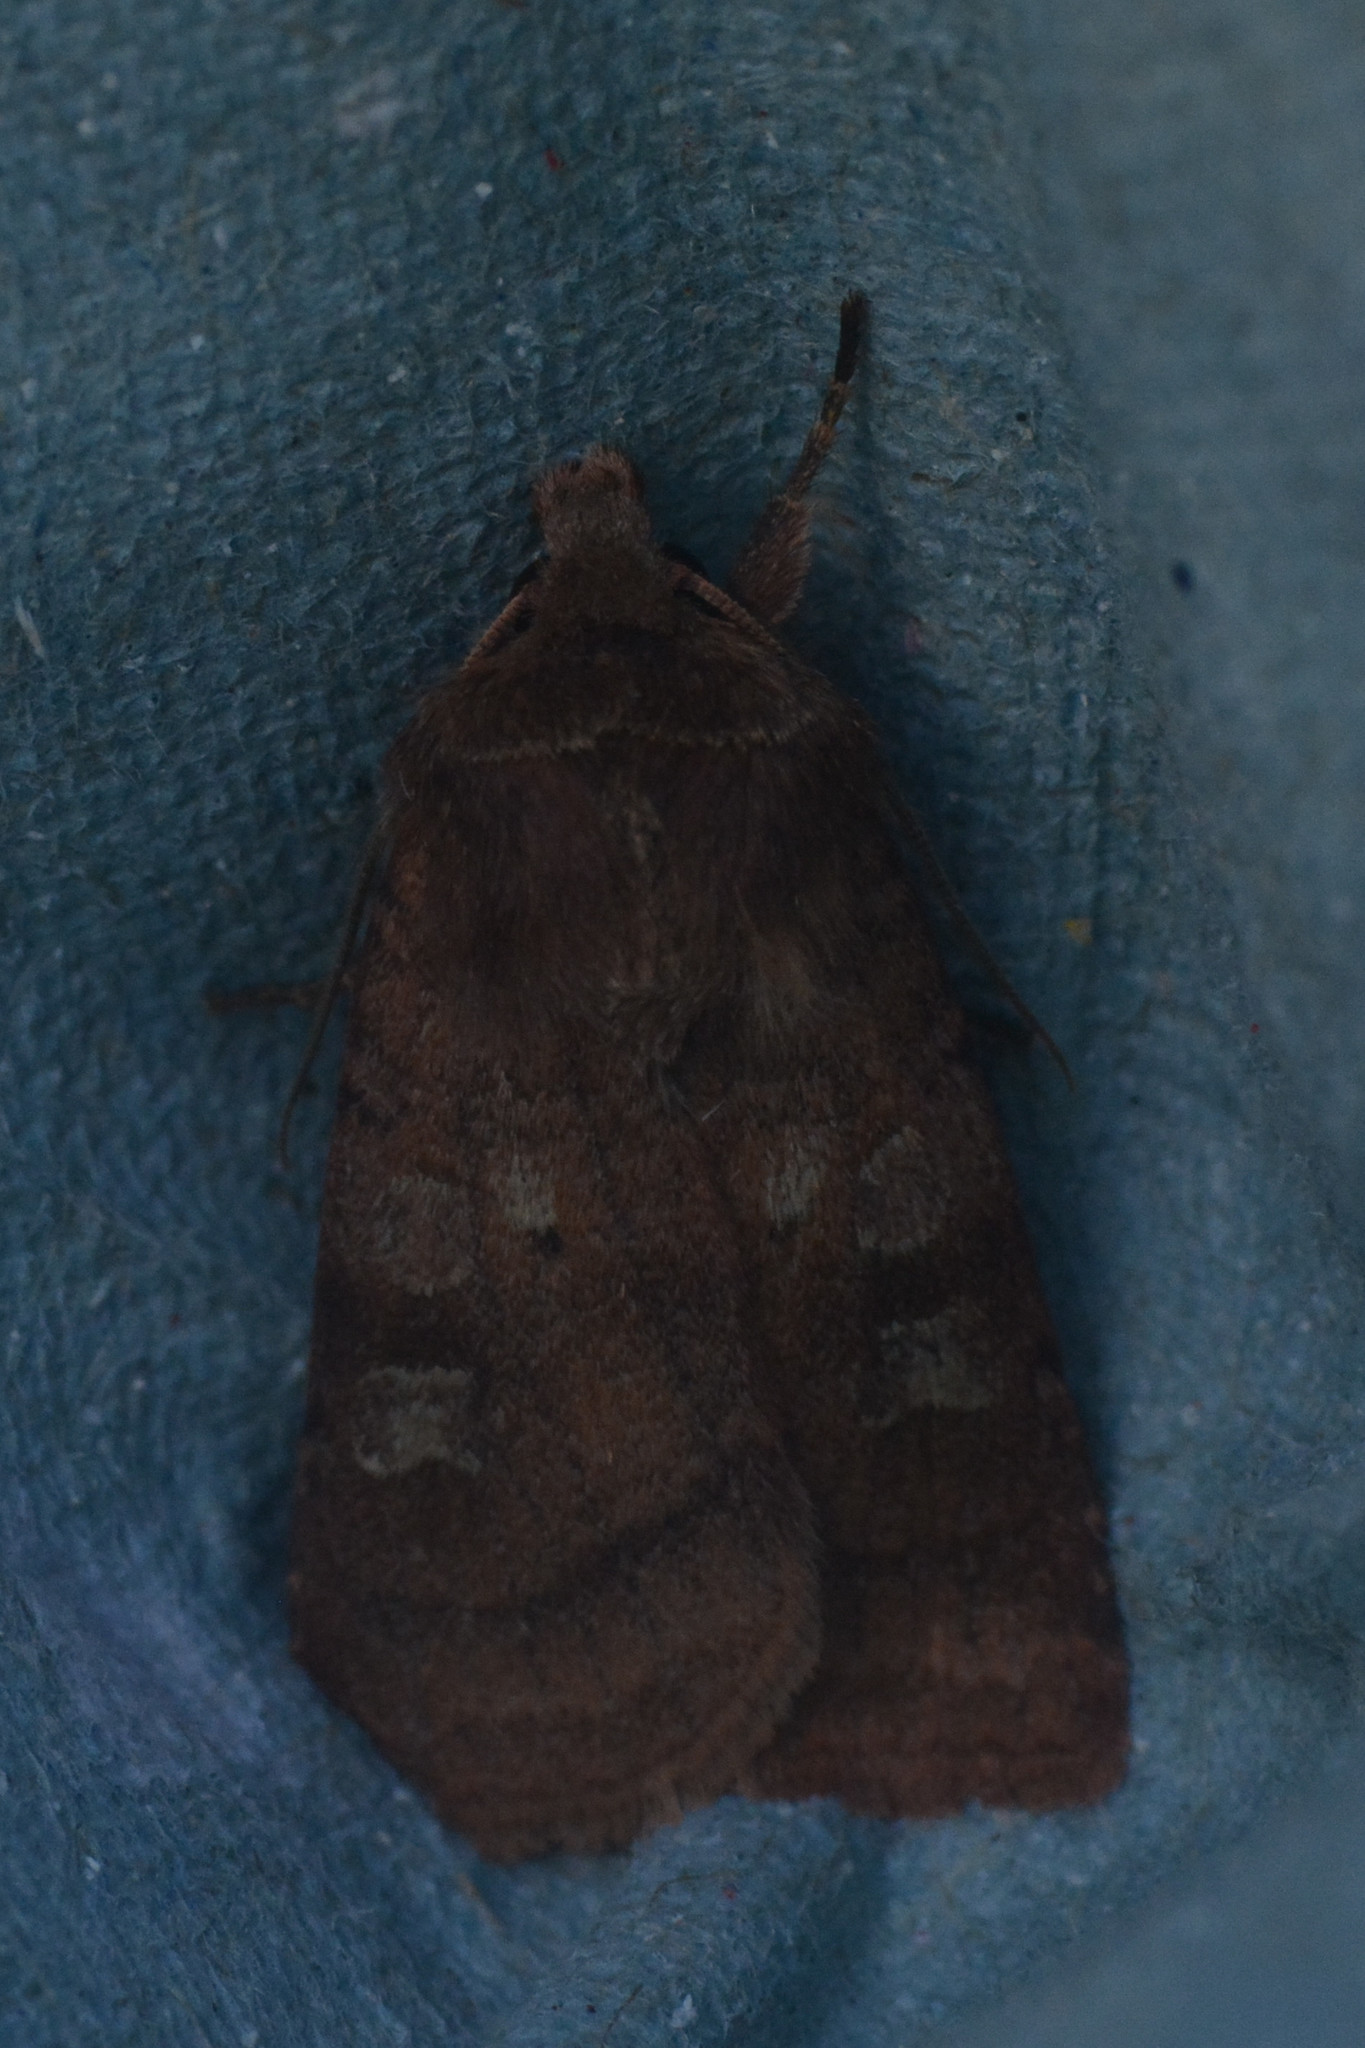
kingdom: Animalia
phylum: Arthropoda
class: Insecta
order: Lepidoptera
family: Noctuidae
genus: Diarsia
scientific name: Diarsia rubi
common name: Small square-spot
